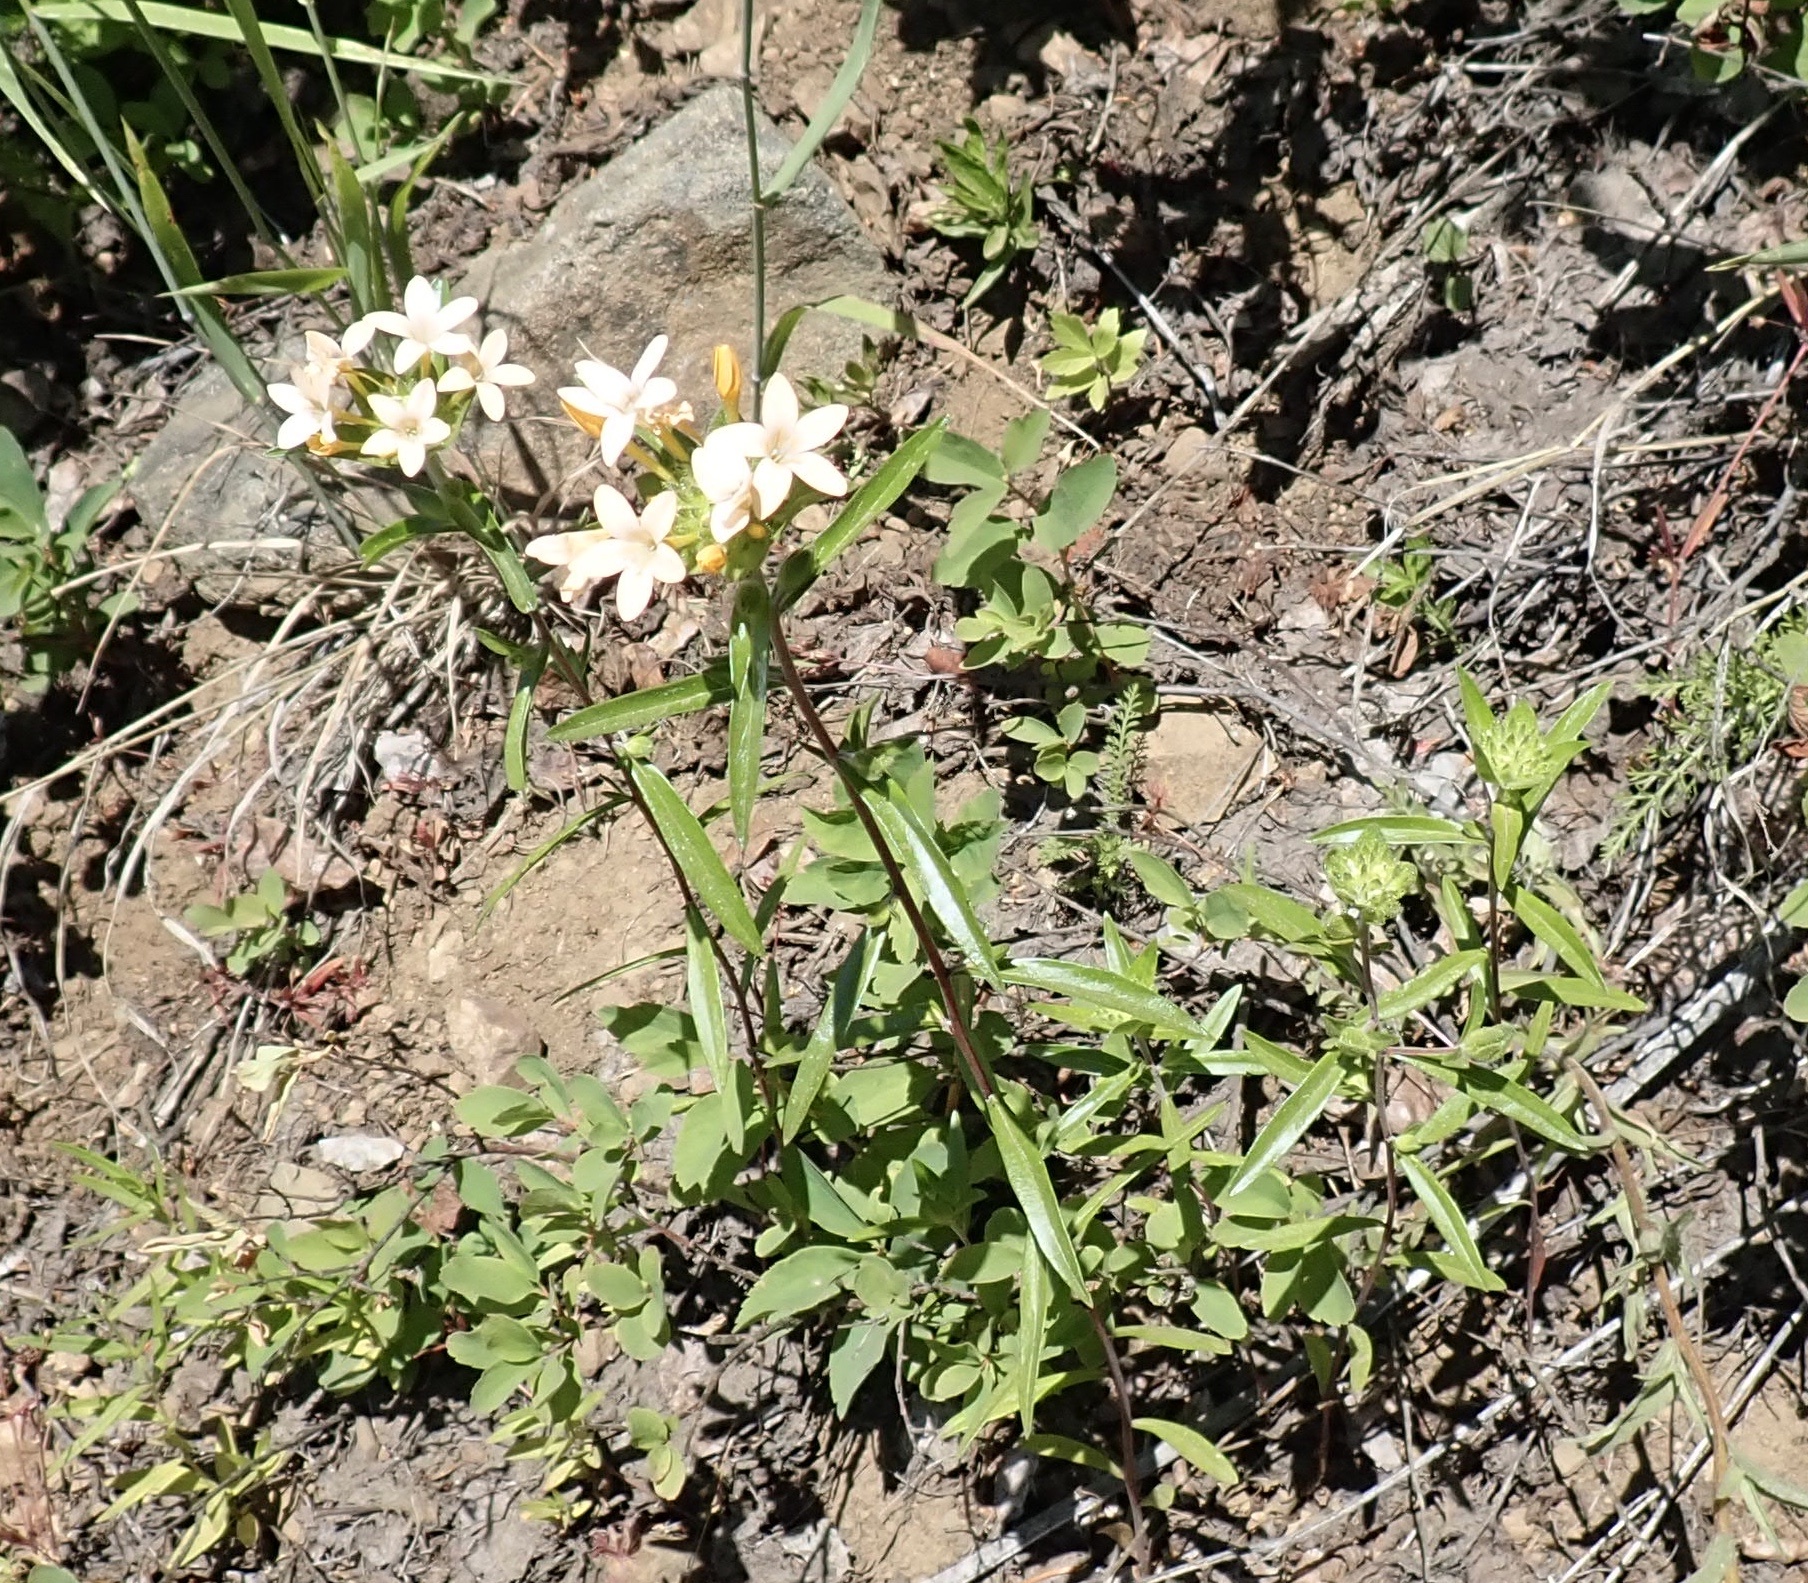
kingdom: Plantae
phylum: Tracheophyta
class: Magnoliopsida
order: Ericales
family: Polemoniaceae
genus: Collomia
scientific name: Collomia grandiflora
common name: California strawflower
